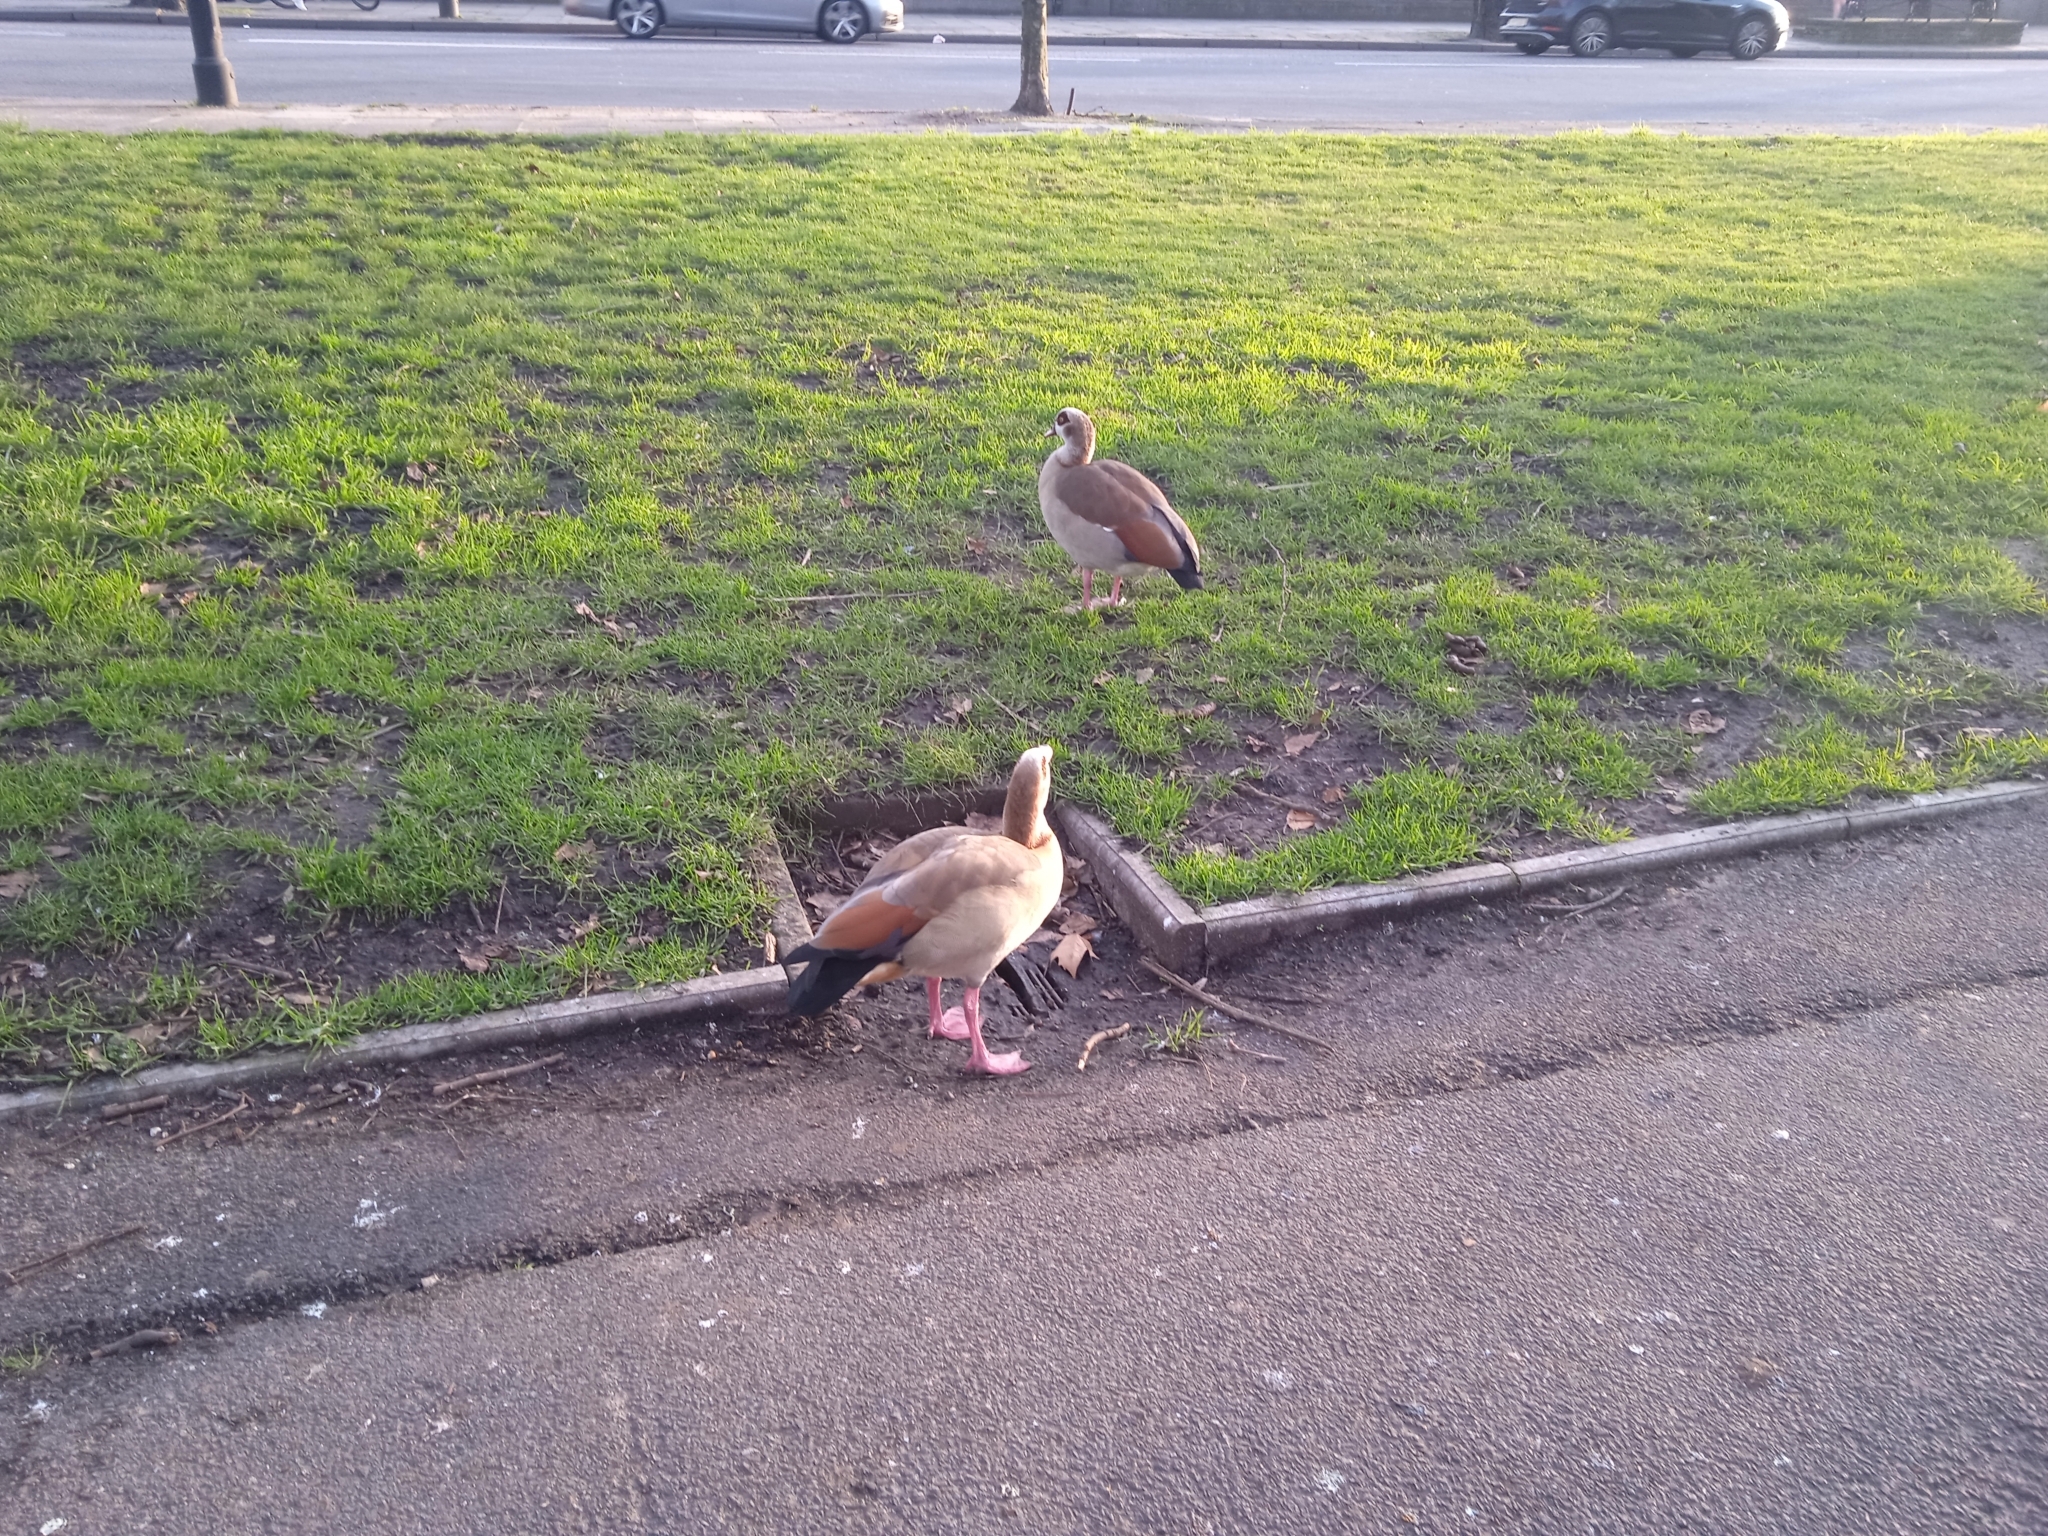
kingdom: Animalia
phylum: Chordata
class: Aves
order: Anseriformes
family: Anatidae
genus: Alopochen
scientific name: Alopochen aegyptiaca
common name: Egyptian goose
